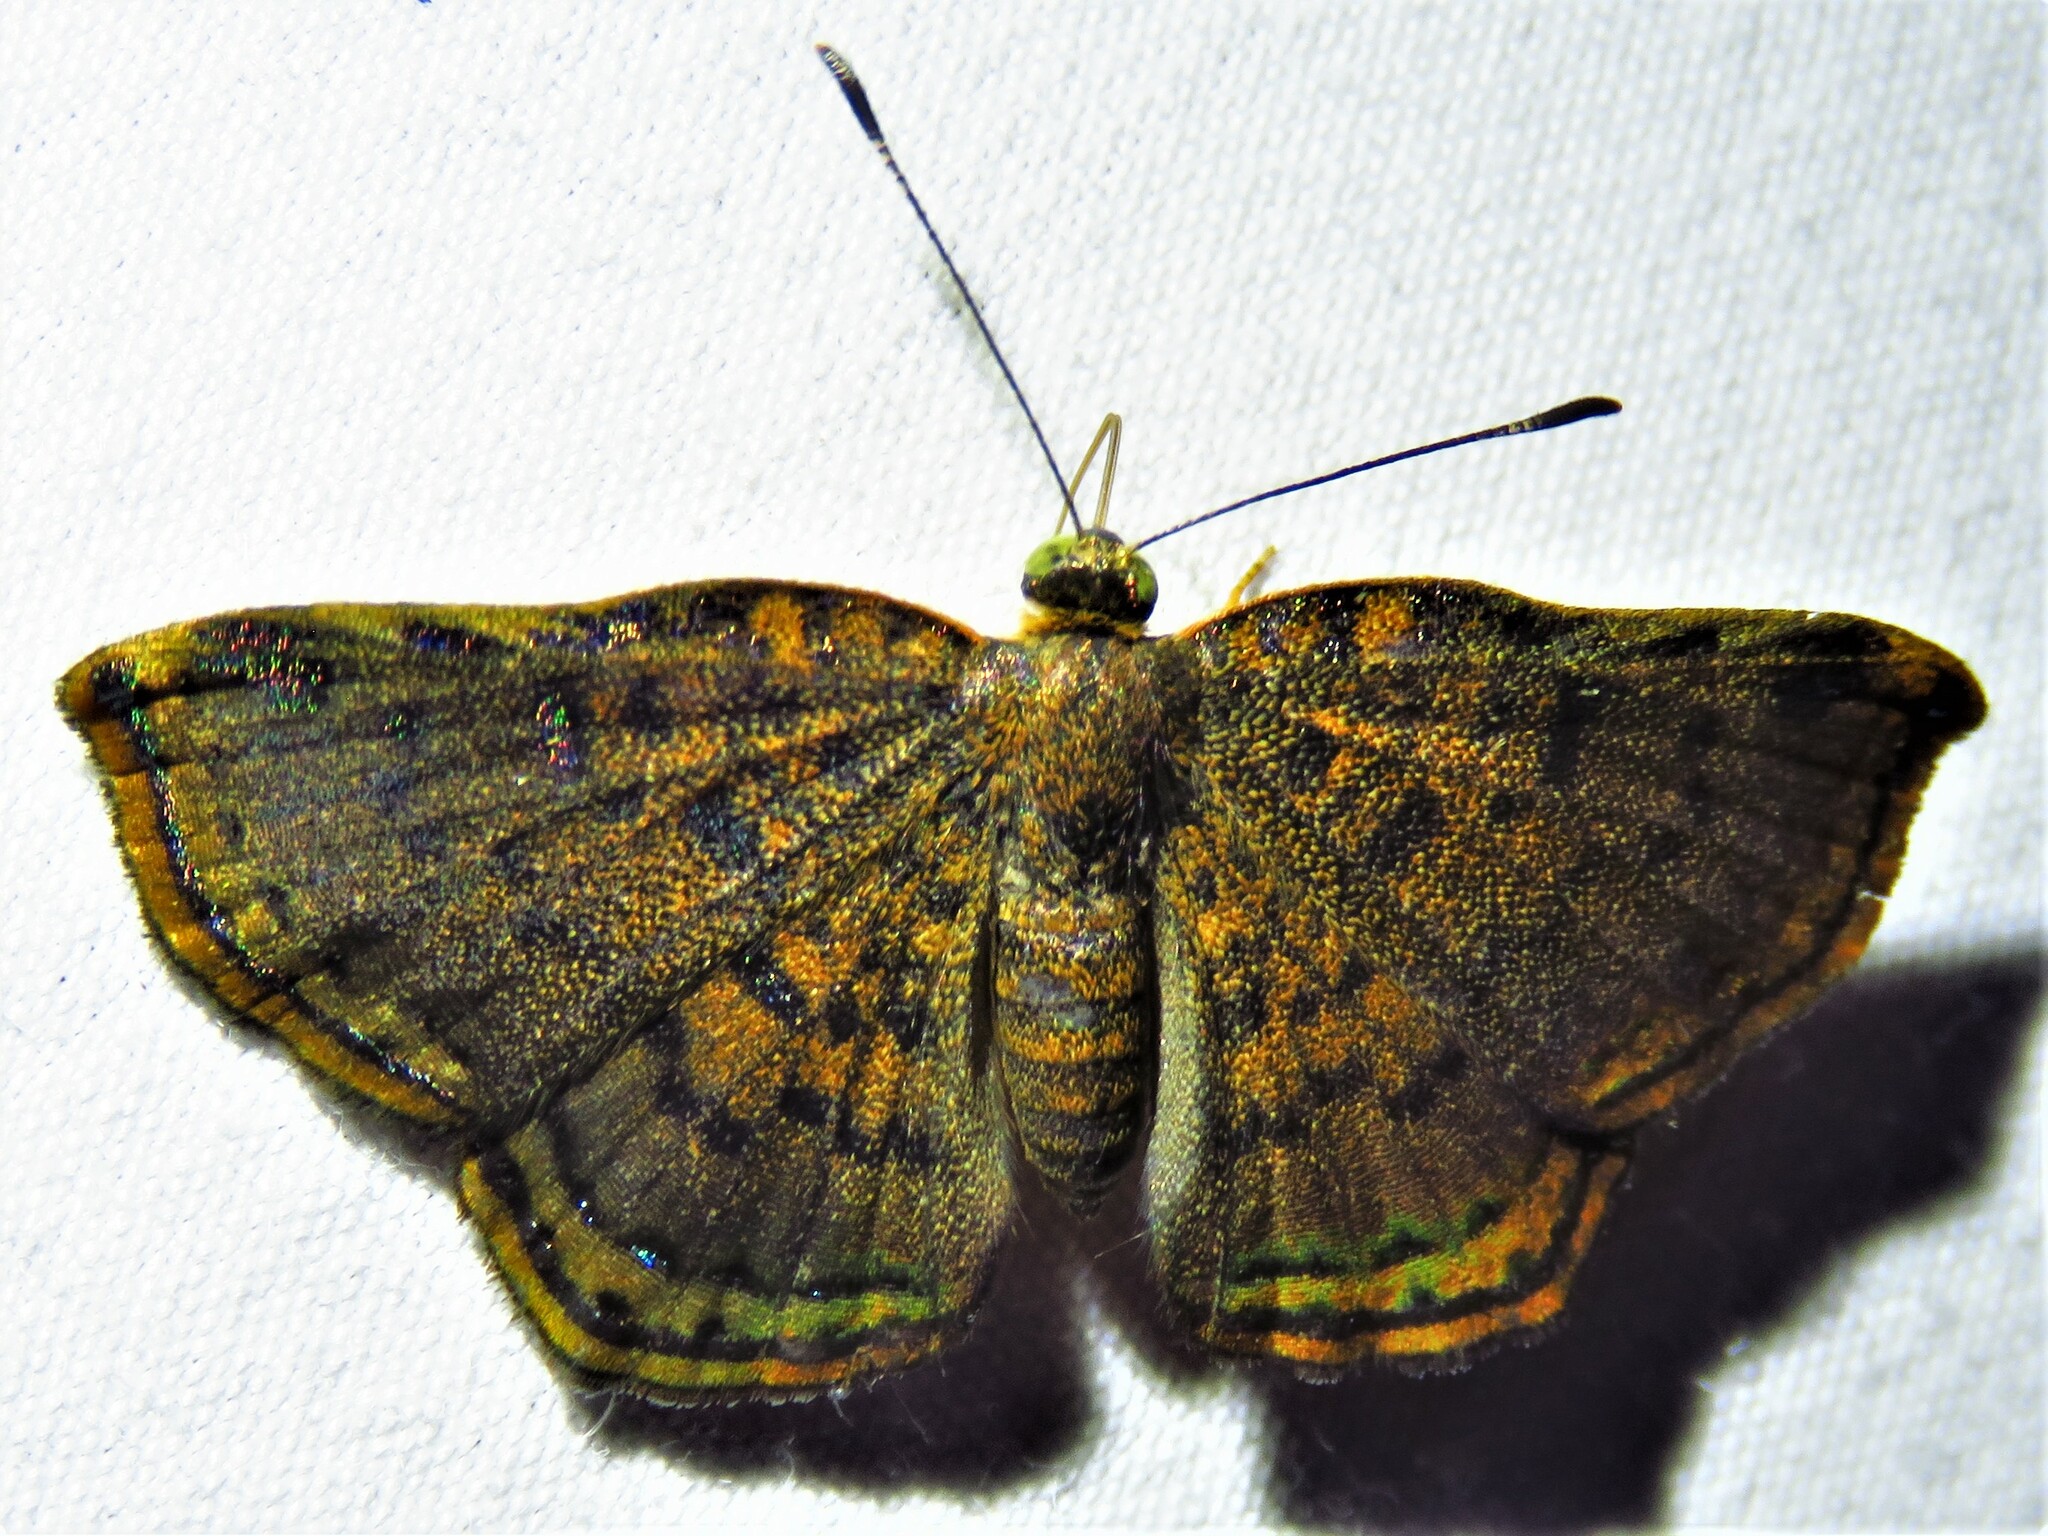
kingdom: Animalia
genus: Caria
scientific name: Caria ino
